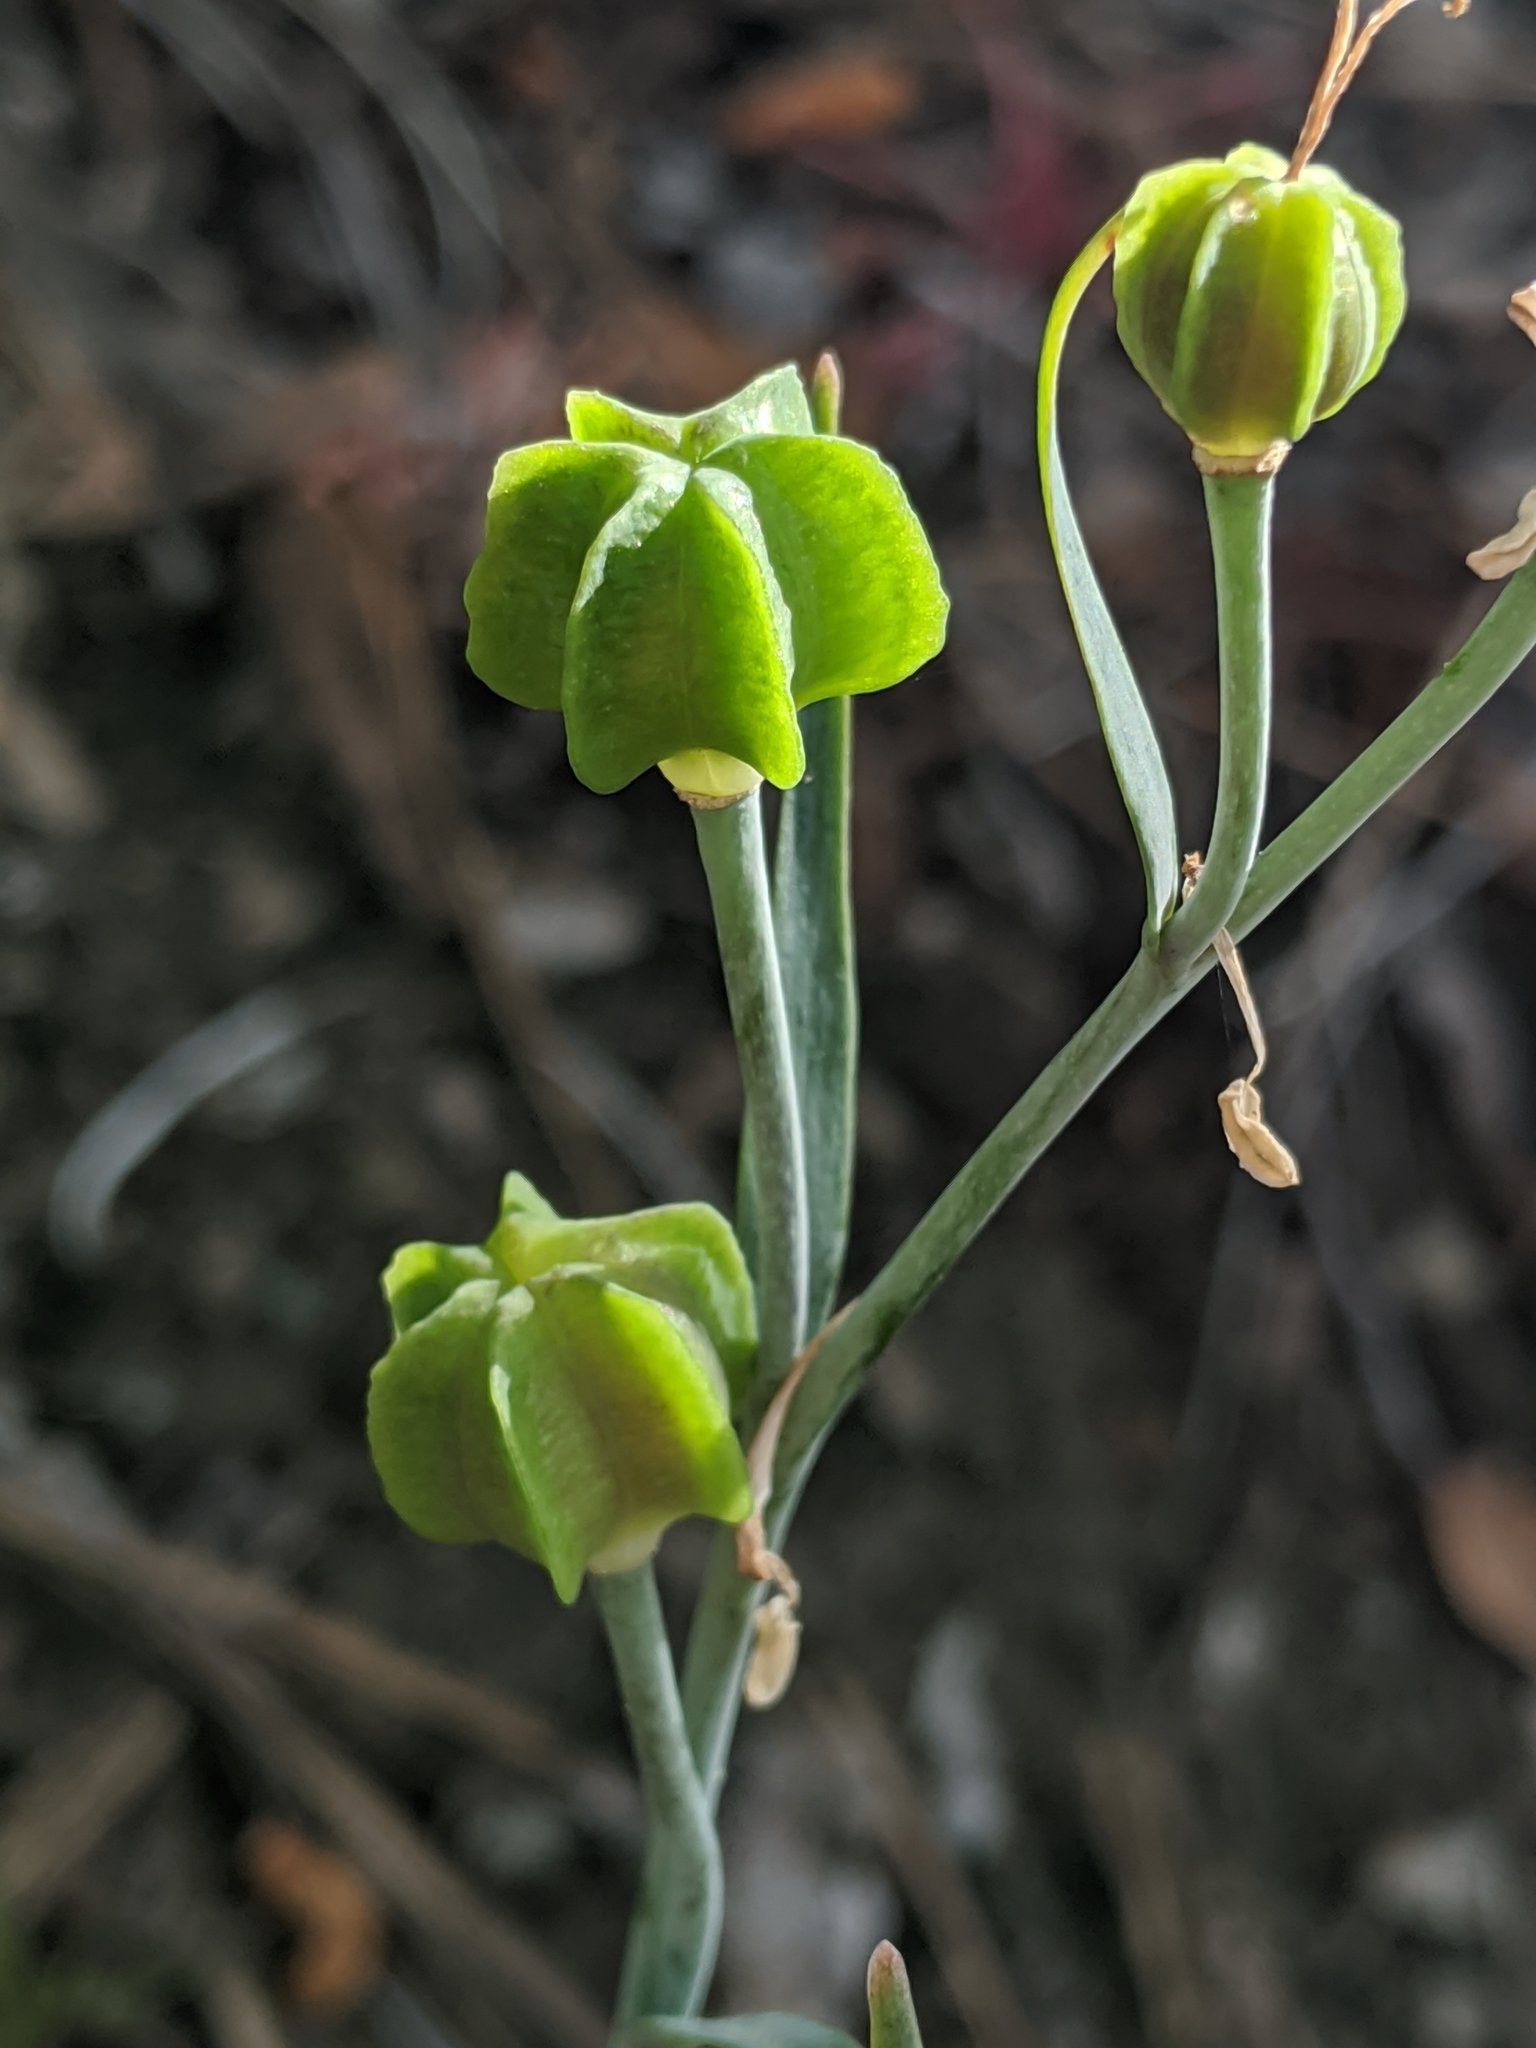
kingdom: Plantae
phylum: Tracheophyta
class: Liliopsida
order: Liliales
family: Liliaceae
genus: Fritillaria
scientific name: Fritillaria viridea
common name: San benito fritillary
